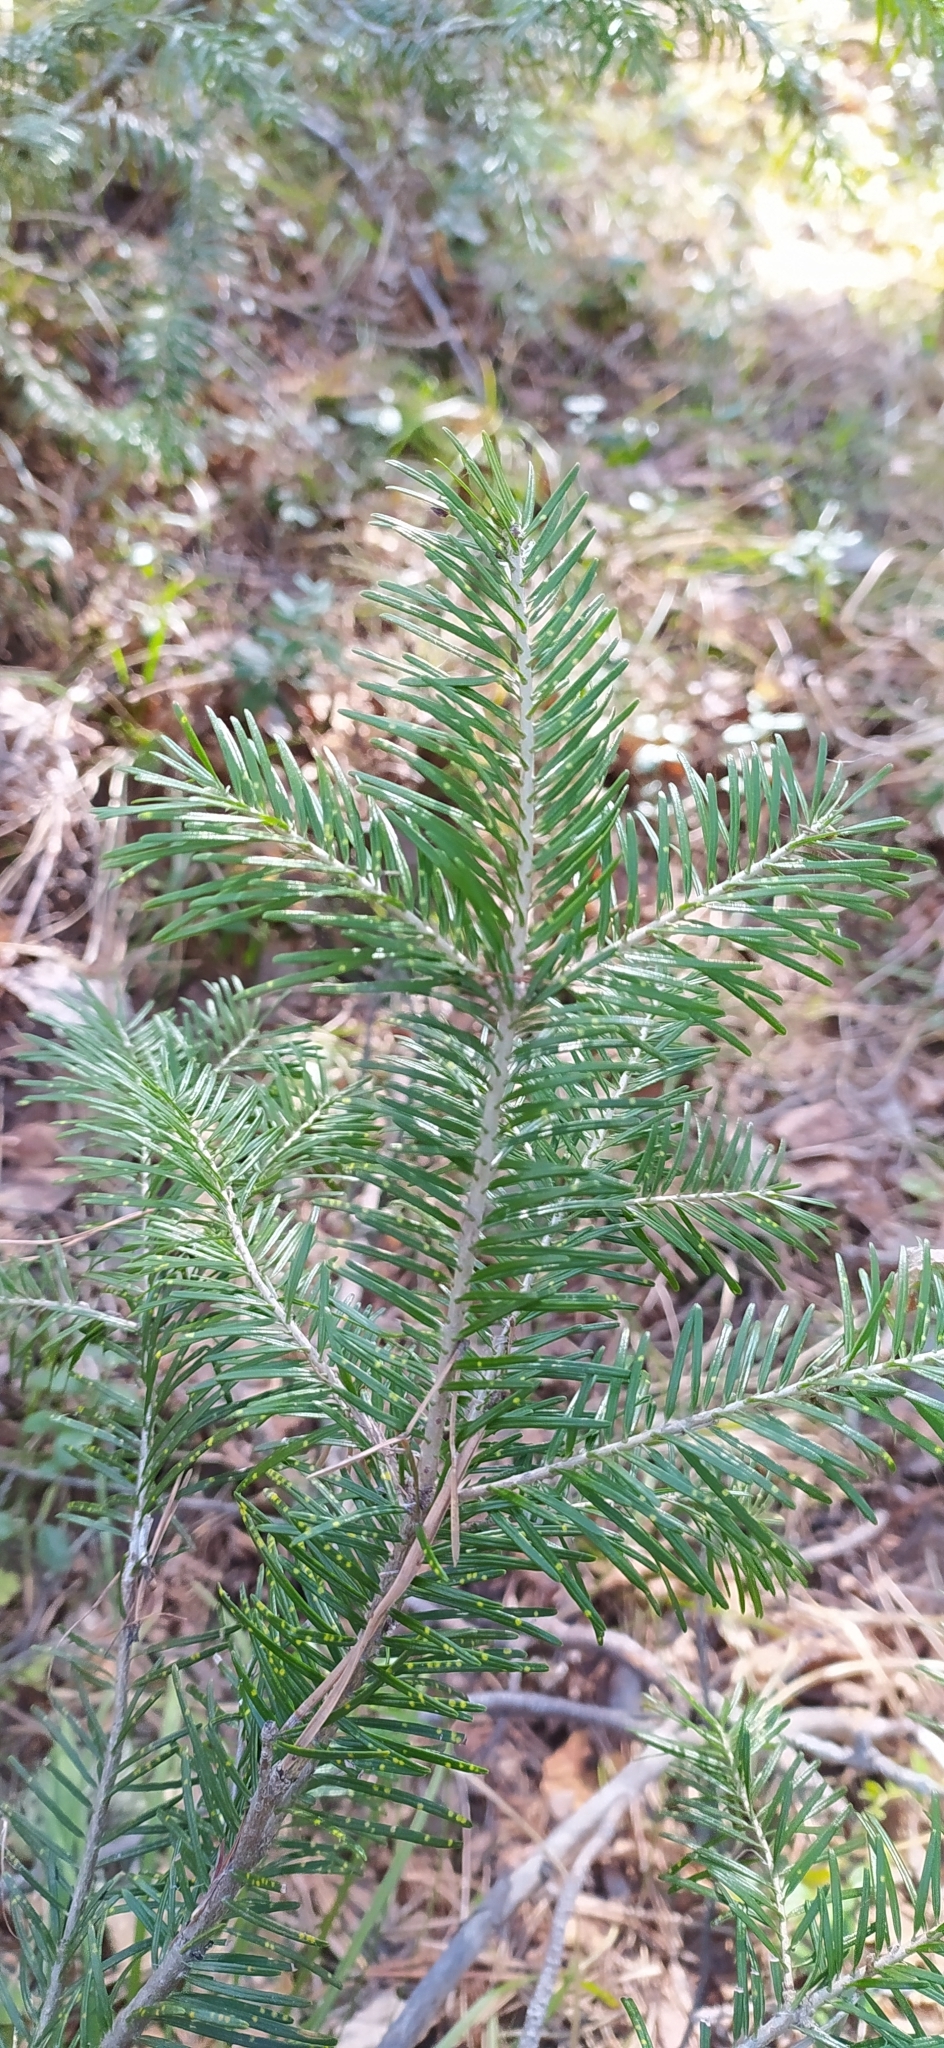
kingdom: Plantae
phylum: Tracheophyta
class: Pinopsida
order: Pinales
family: Pinaceae
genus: Abies
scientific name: Abies sibirica
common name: Siberian fir
